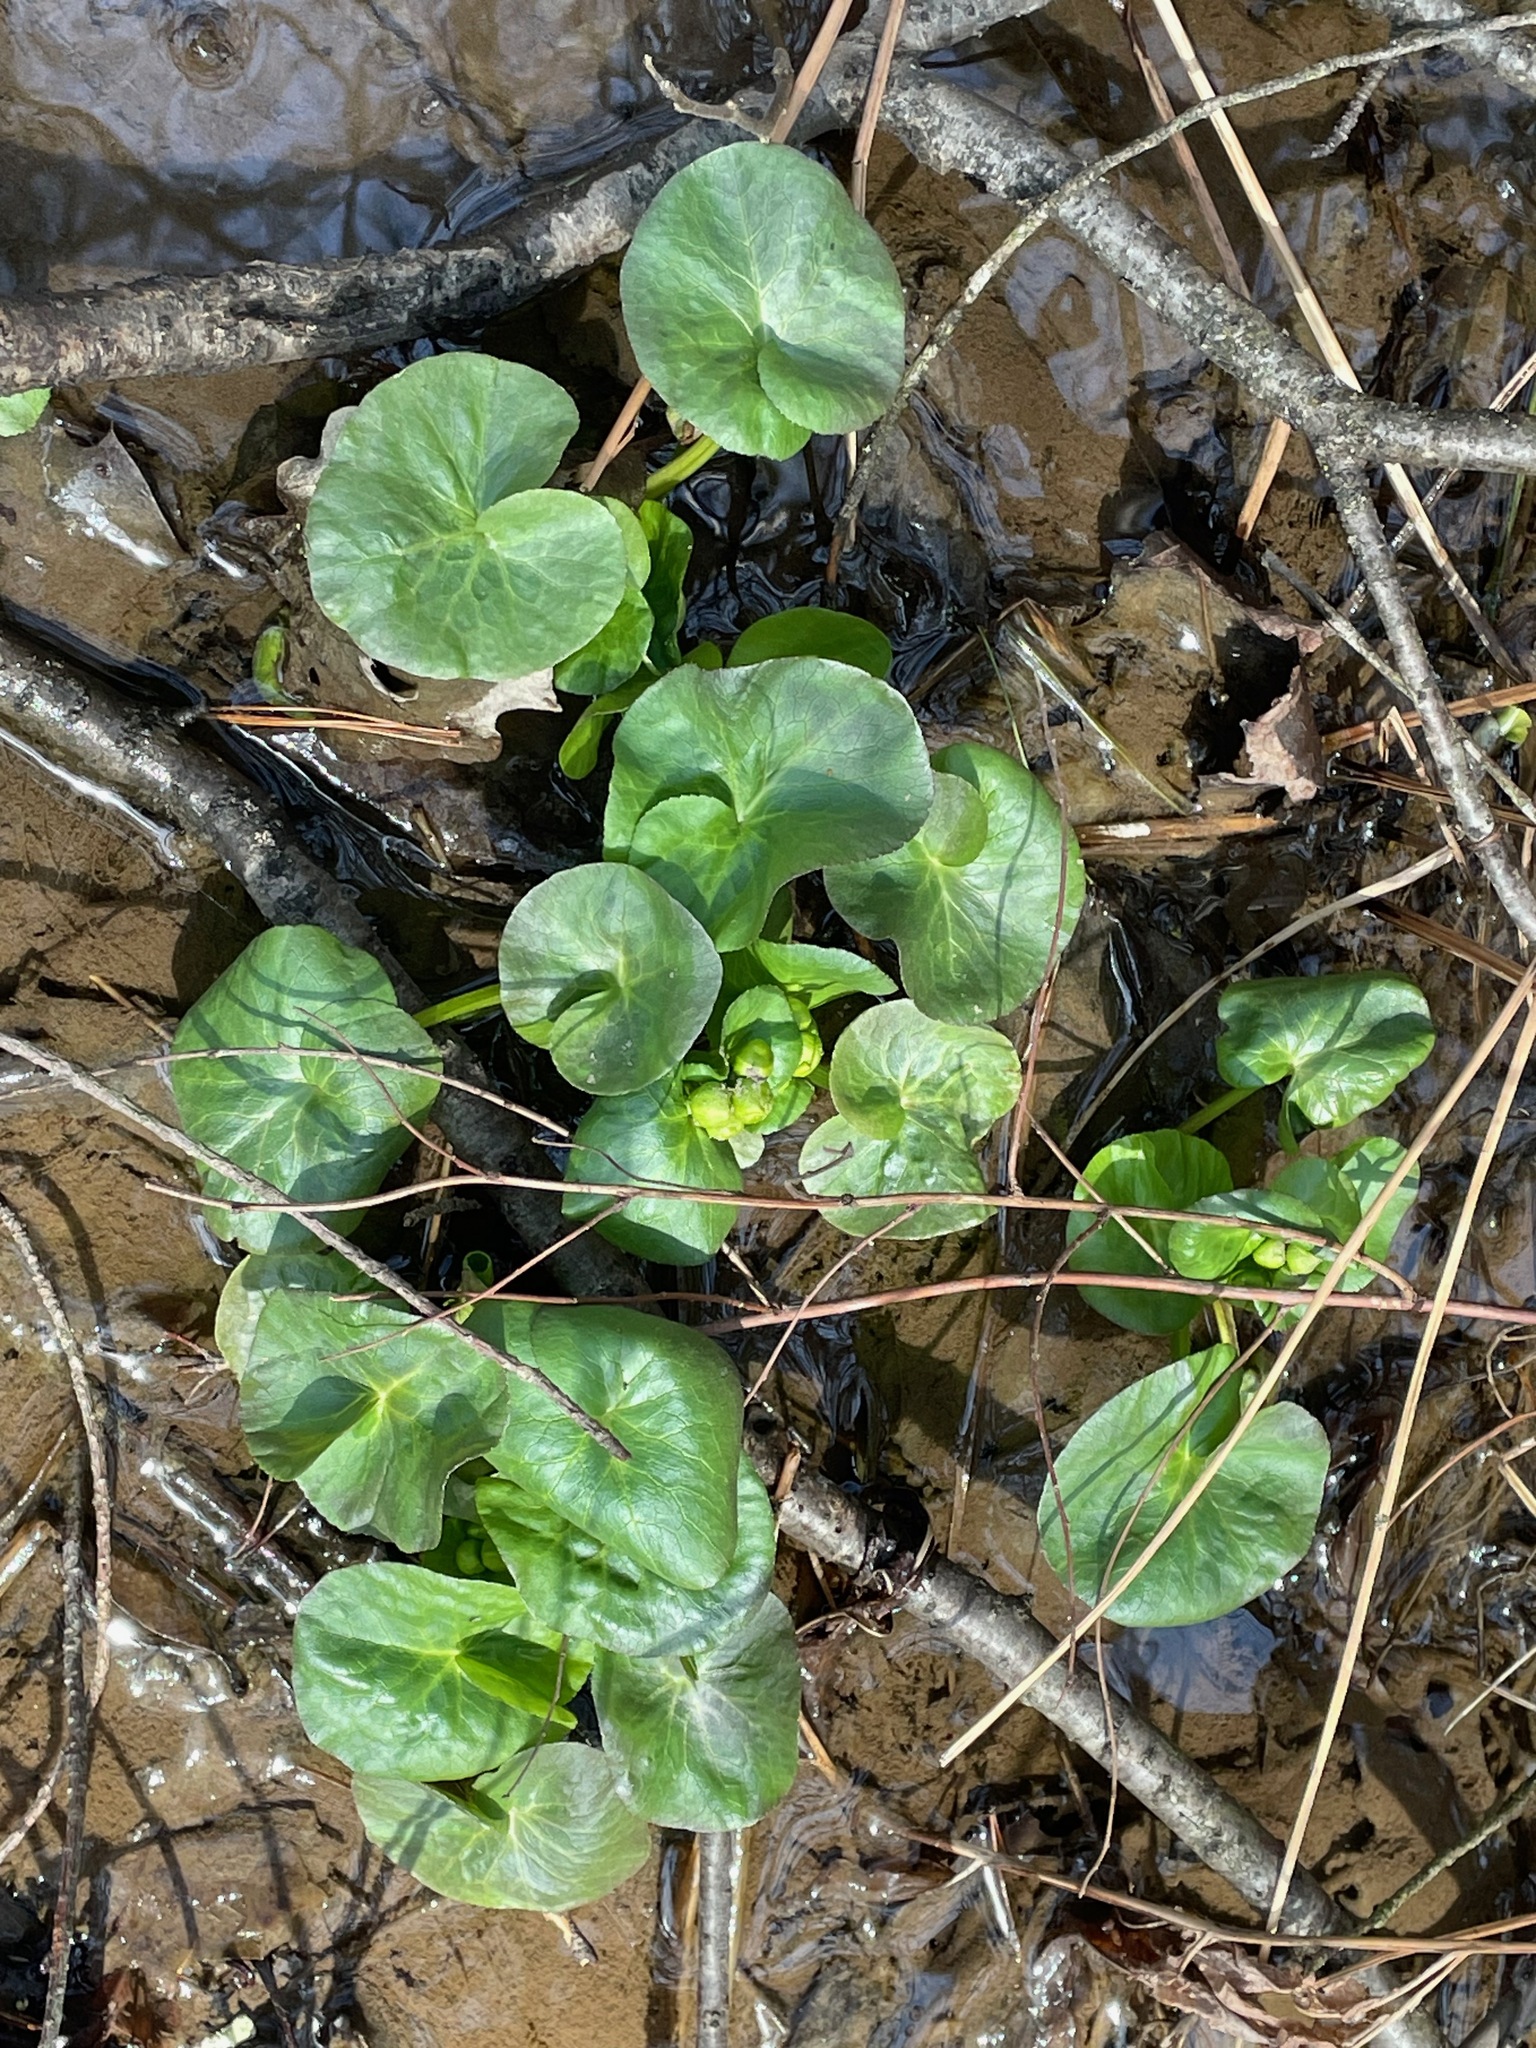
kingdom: Plantae
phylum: Tracheophyta
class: Magnoliopsida
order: Ranunculales
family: Ranunculaceae
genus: Caltha
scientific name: Caltha palustris
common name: Marsh marigold
